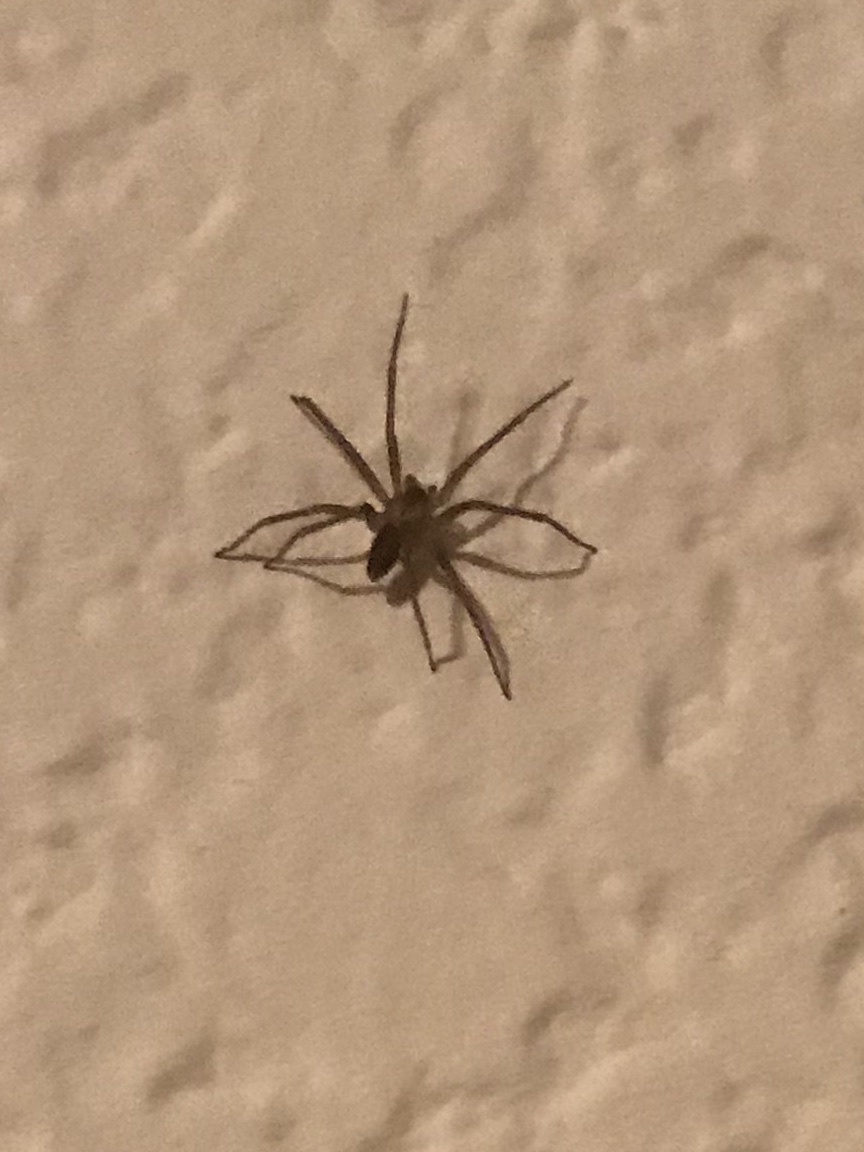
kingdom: Animalia
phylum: Arthropoda
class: Arachnida
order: Araneae
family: Sicariidae
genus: Loxosceles
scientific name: Loxosceles reclusa
